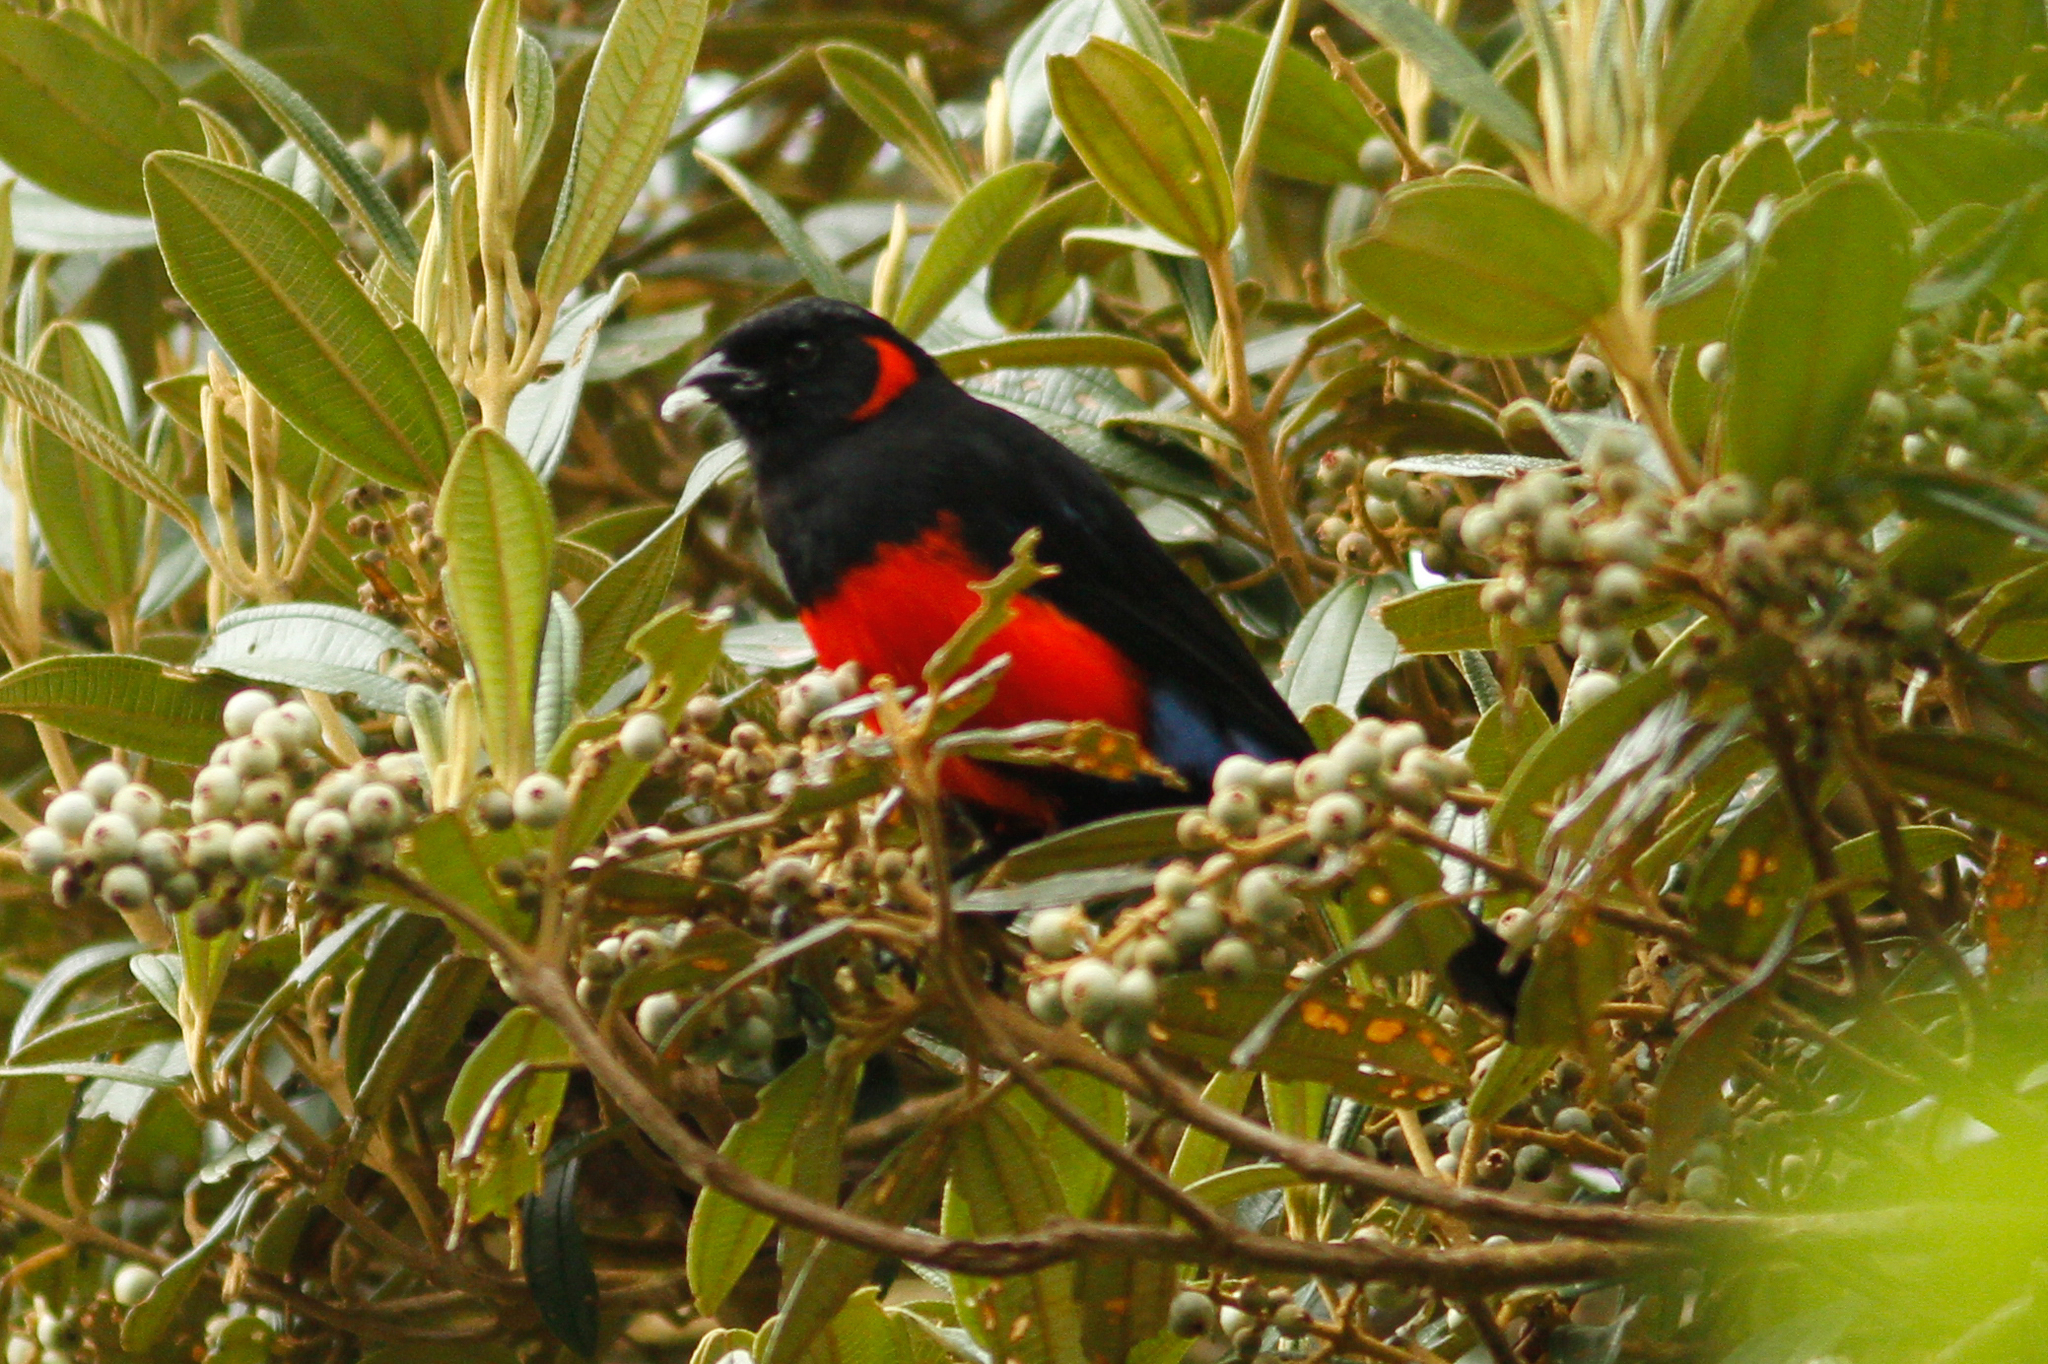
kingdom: Animalia
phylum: Chordata
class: Aves
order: Passeriformes
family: Thraupidae
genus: Anisognathus
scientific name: Anisognathus igniventris
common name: Scarlet-bellied mountain tanager
